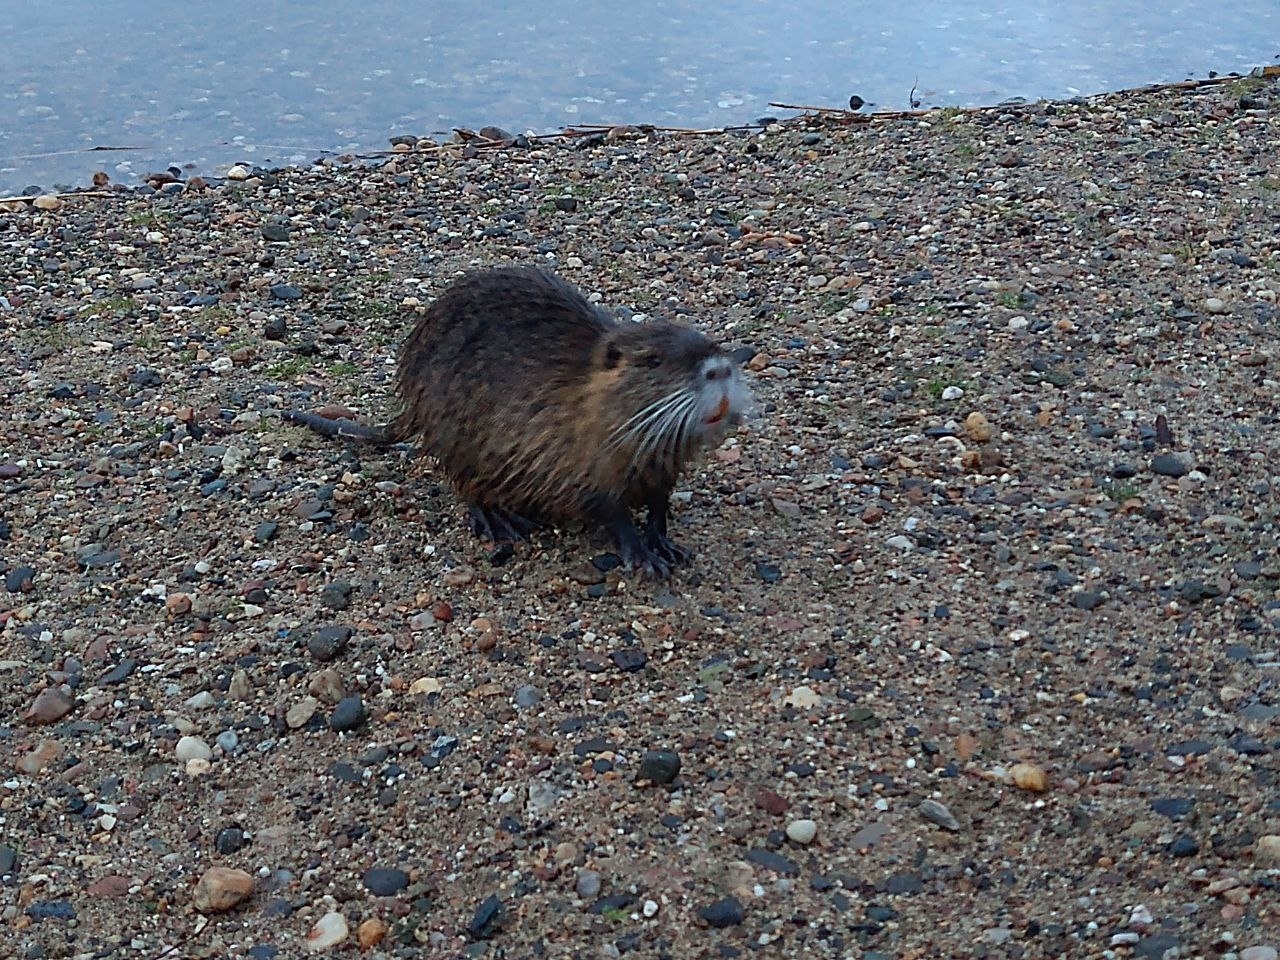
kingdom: Animalia
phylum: Chordata
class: Mammalia
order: Rodentia
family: Myocastoridae
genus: Myocastor
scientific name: Myocastor coypus
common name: Coypu
